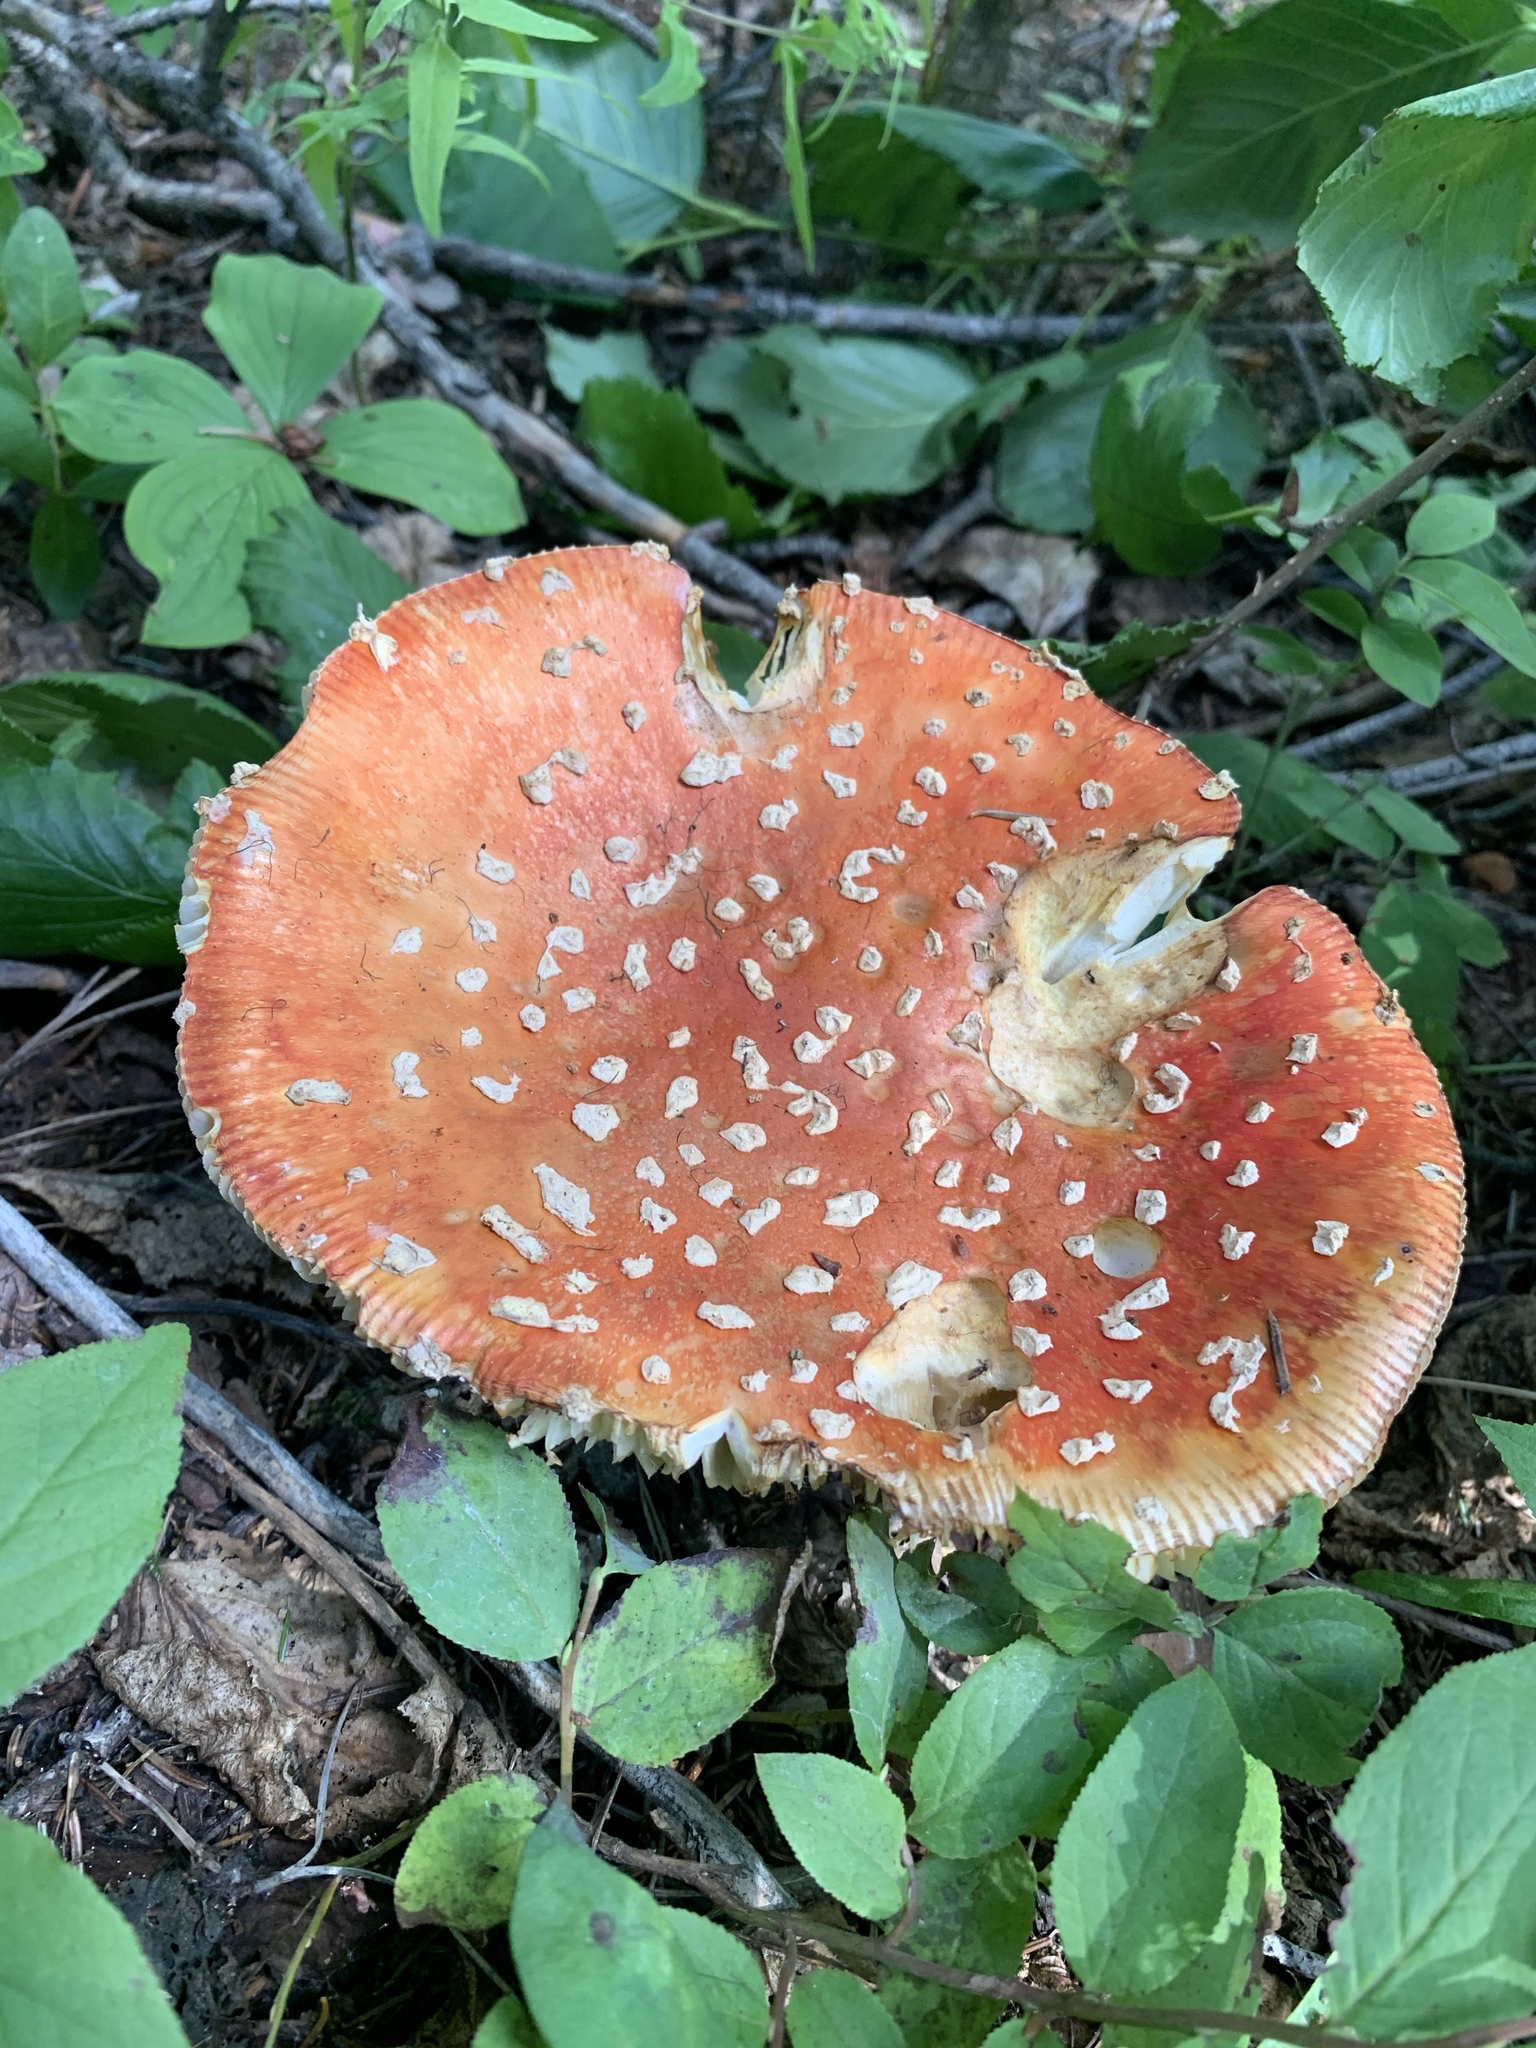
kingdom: Fungi
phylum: Basidiomycota
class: Agaricomycetes
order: Agaricales
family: Amanitaceae
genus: Amanita
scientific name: Amanita muscaria
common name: Fly agaric
